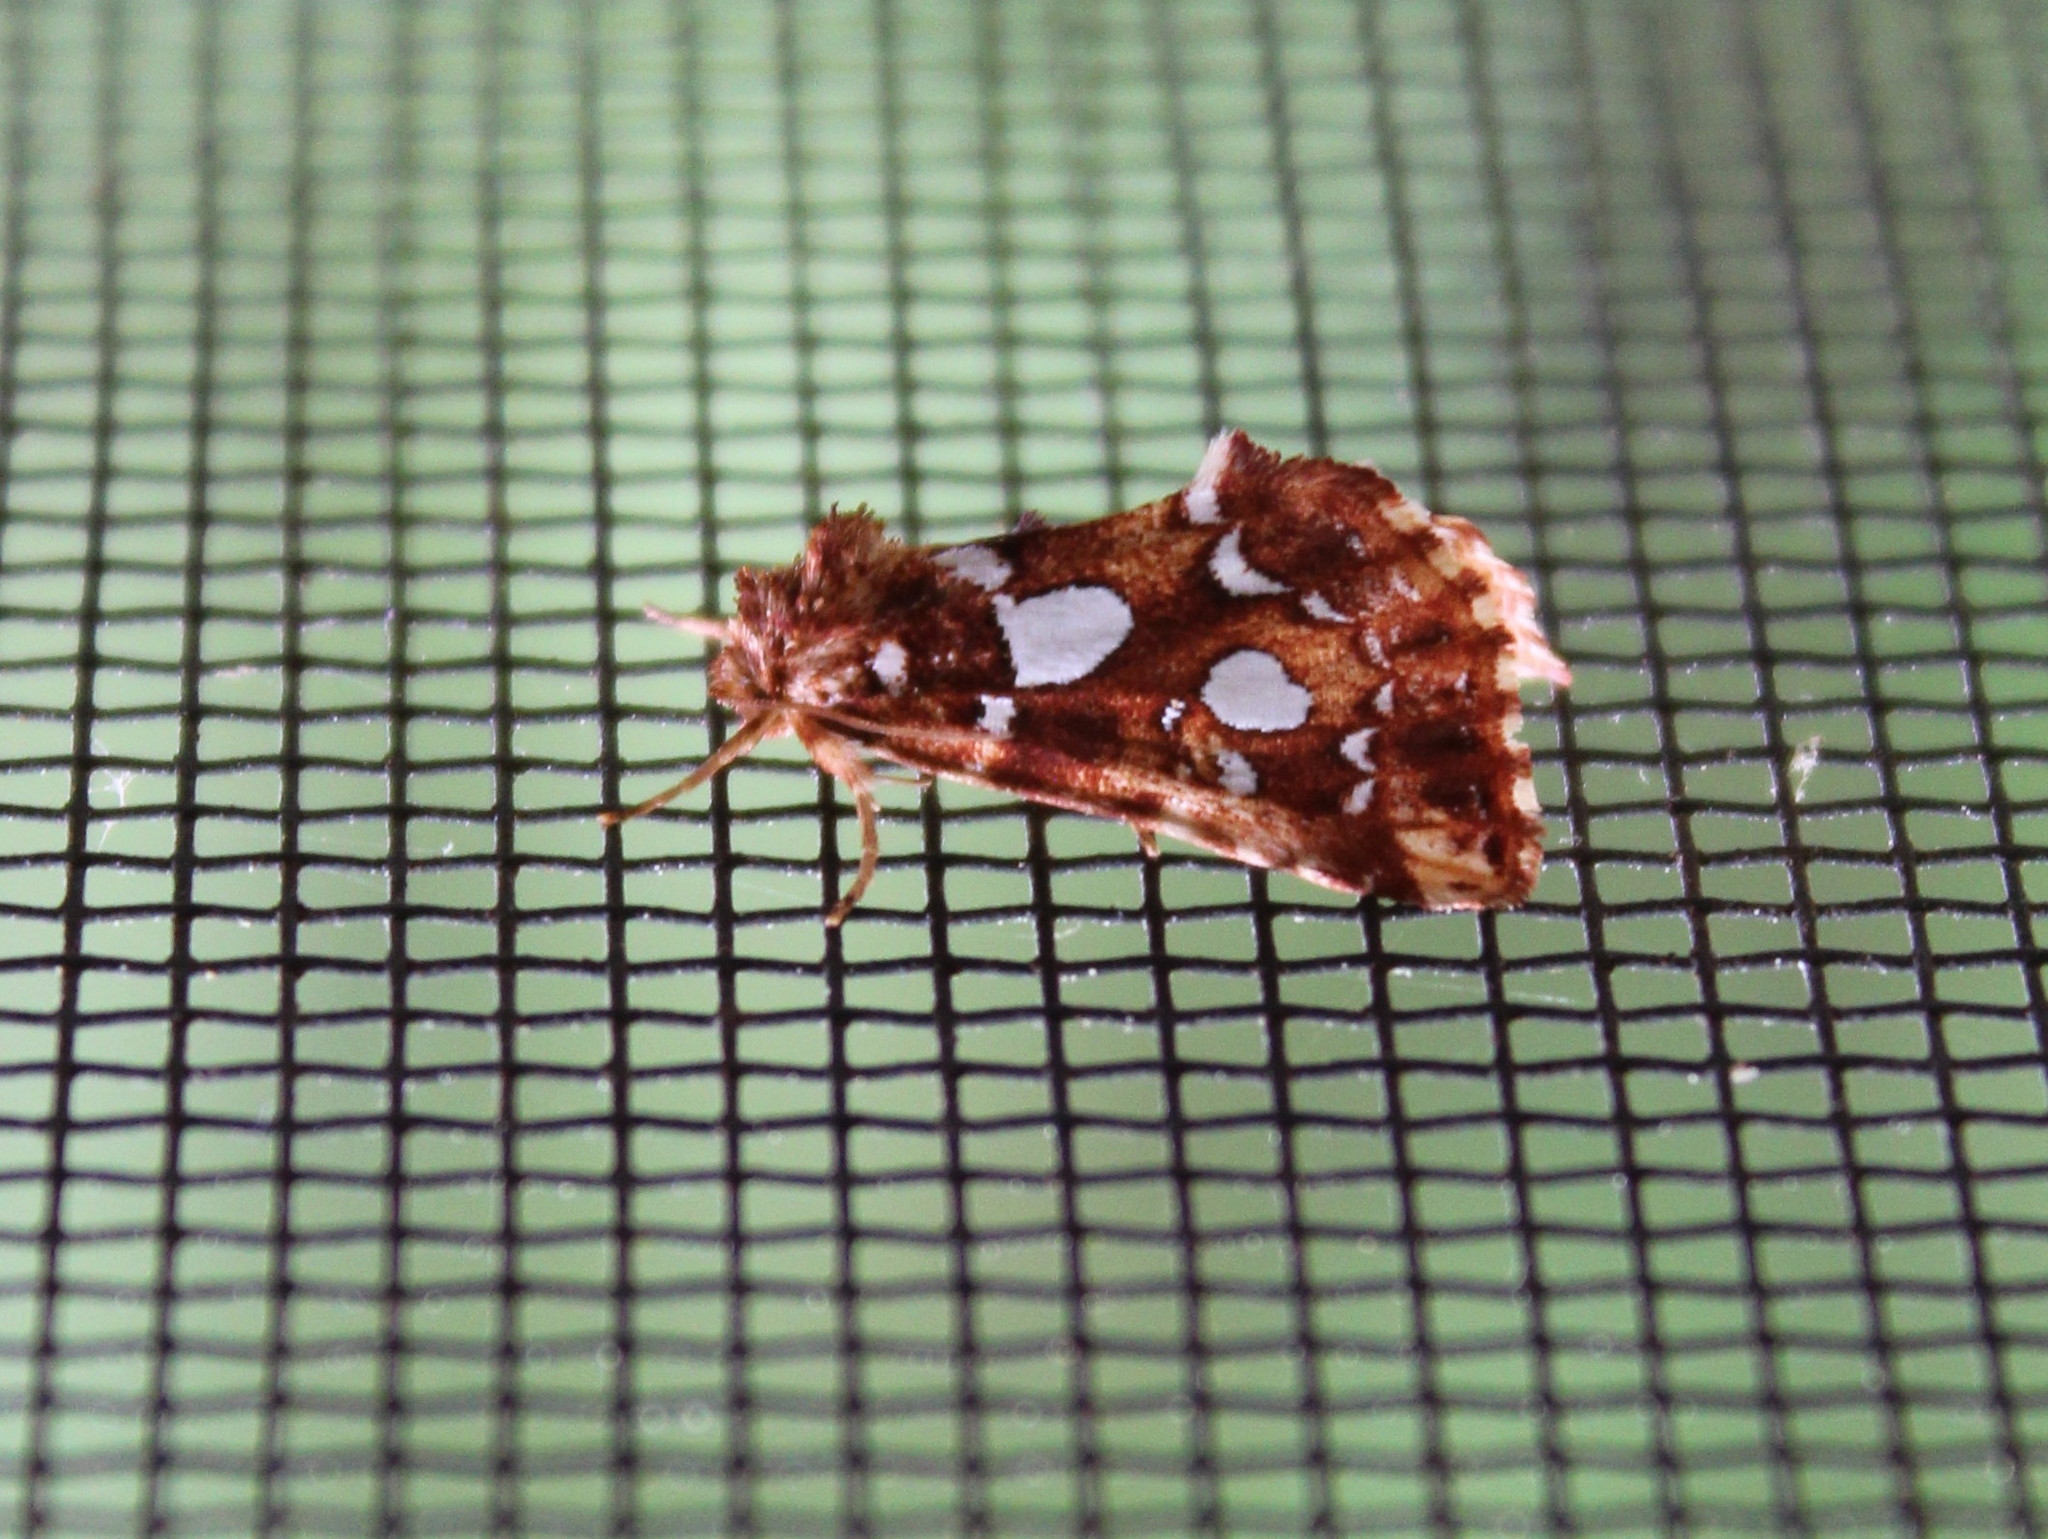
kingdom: Animalia
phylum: Arthropoda
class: Insecta
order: Lepidoptera
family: Noctuidae
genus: Callopistria
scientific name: Callopistria cordata
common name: Silver-spotted fern moth
